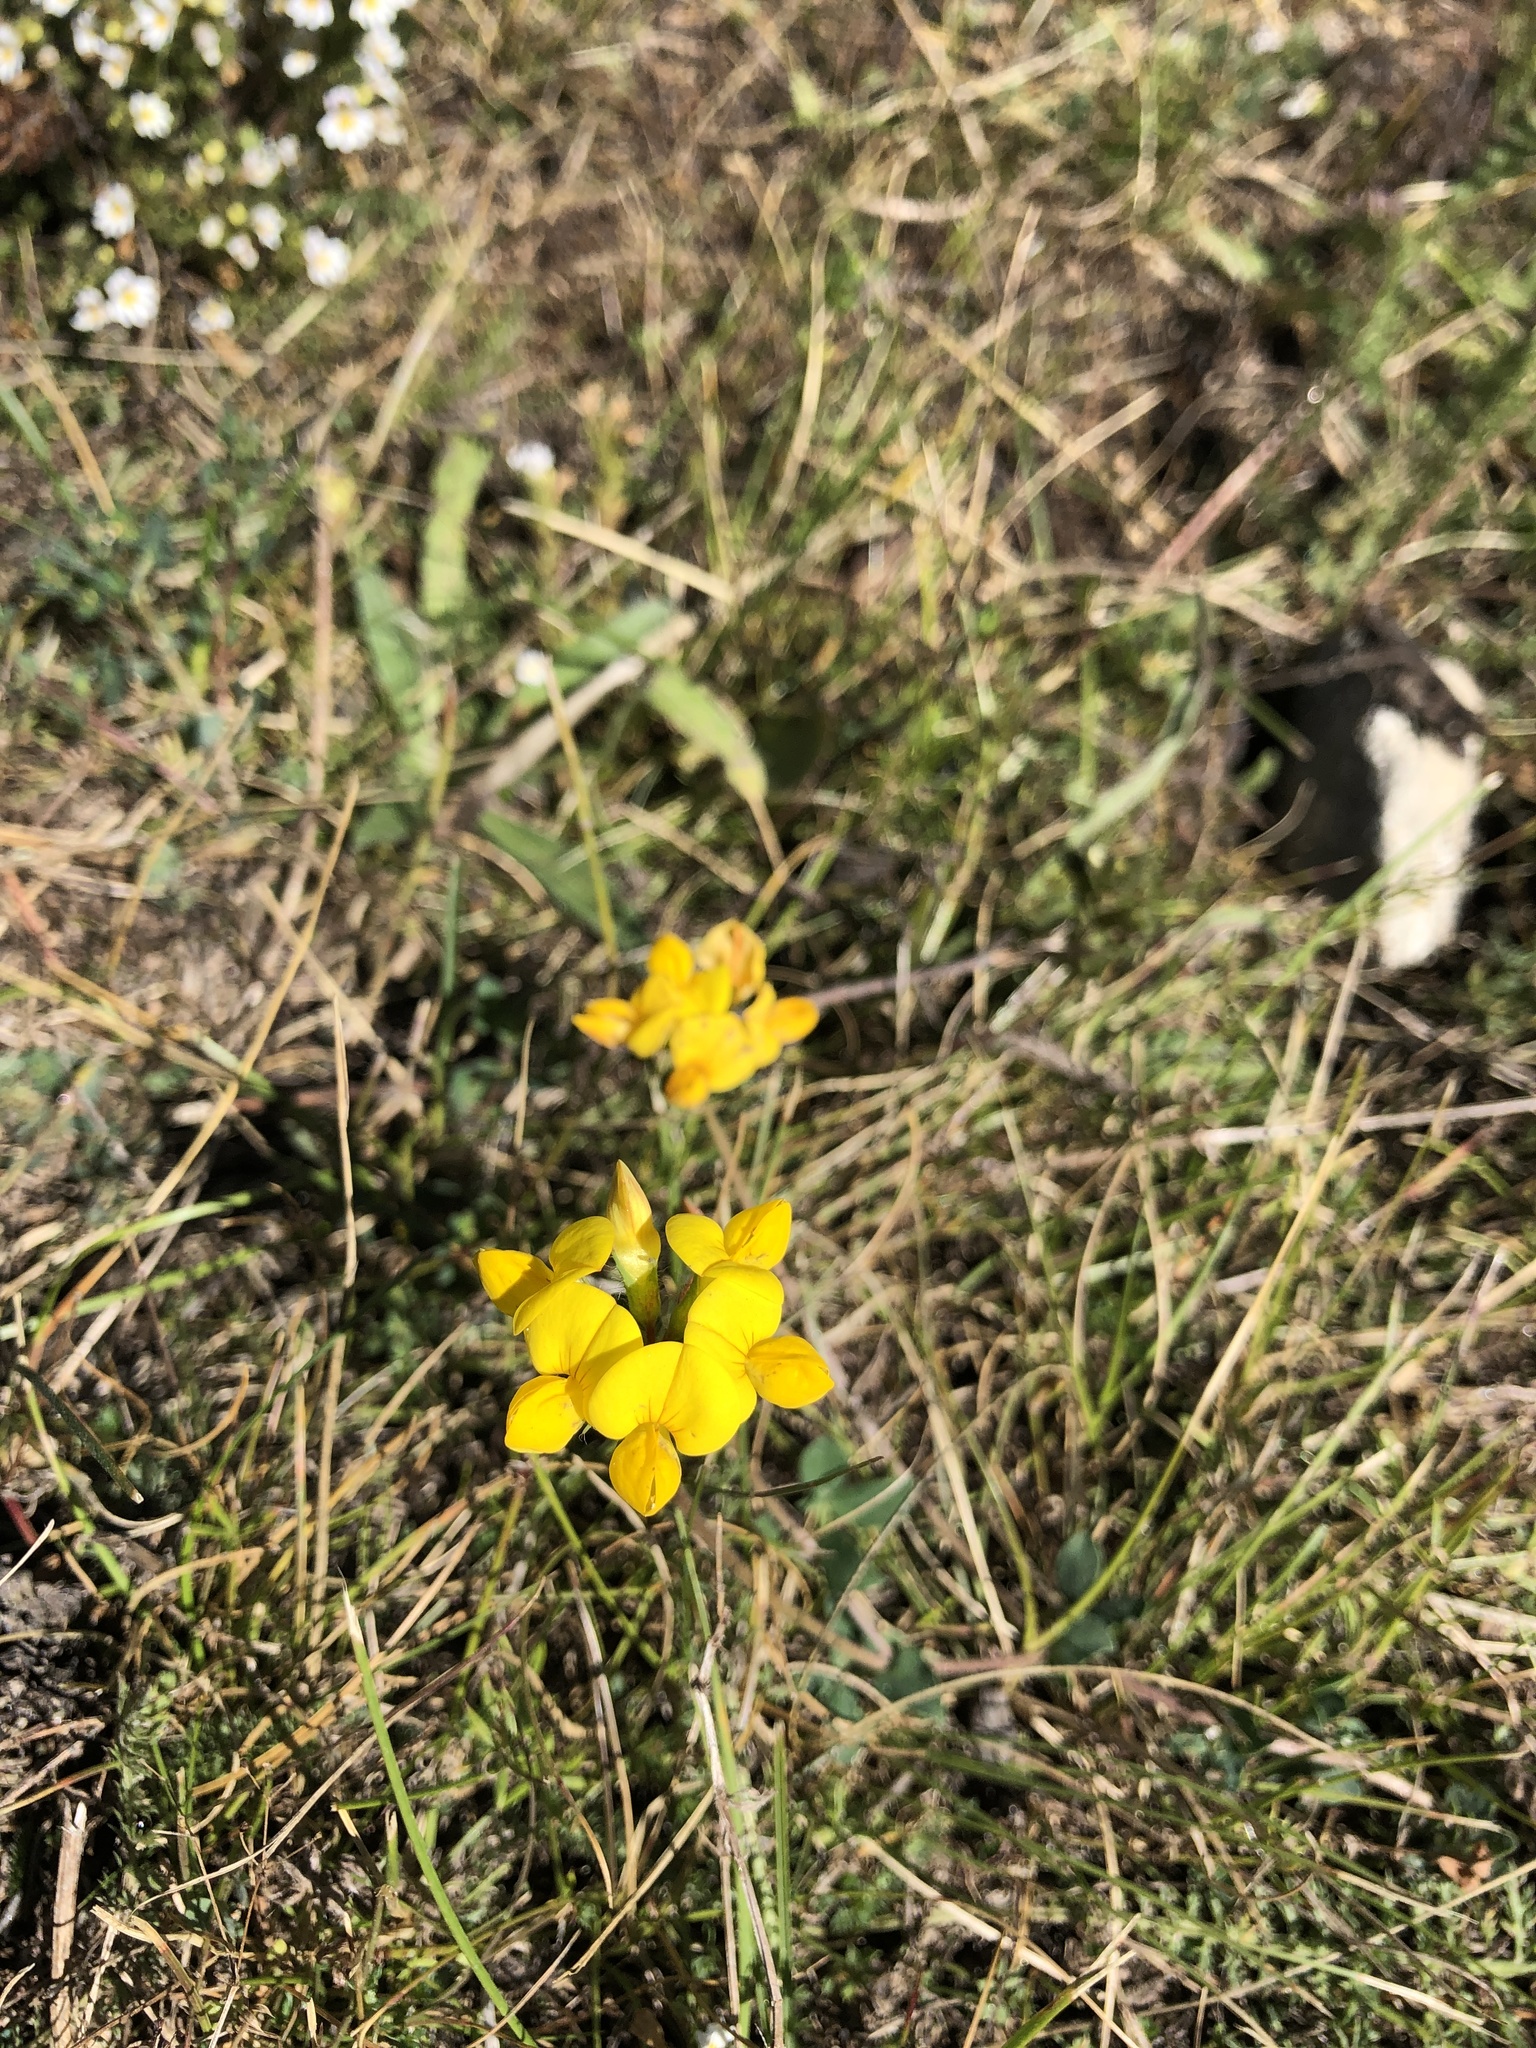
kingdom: Plantae
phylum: Tracheophyta
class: Magnoliopsida
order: Fabales
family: Fabaceae
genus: Lotus
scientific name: Lotus corniculatus
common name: Common bird's-foot-trefoil
